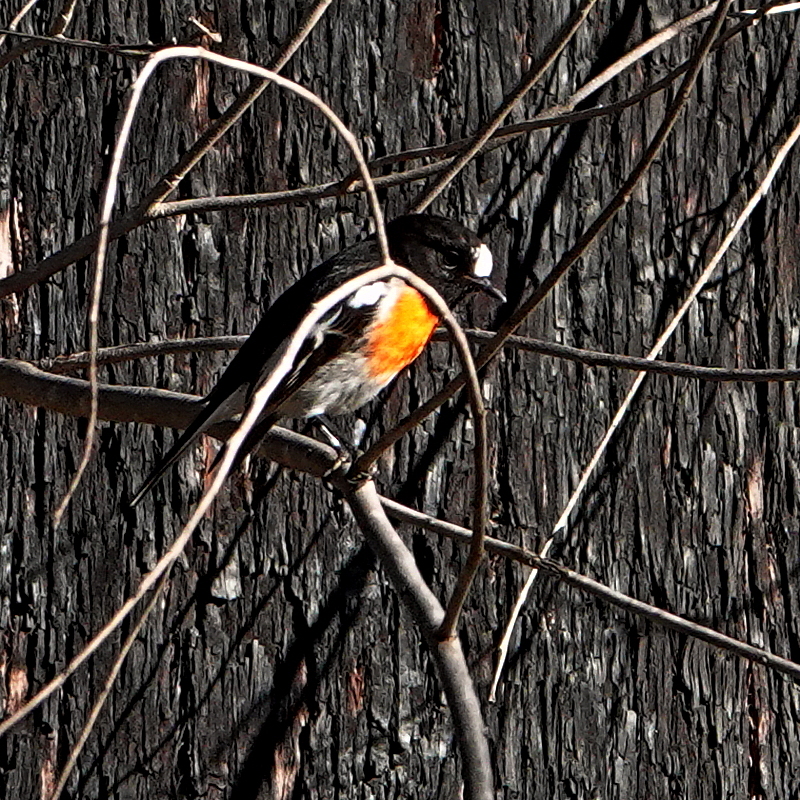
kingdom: Animalia
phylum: Chordata
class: Aves
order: Passeriformes
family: Petroicidae
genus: Petroica
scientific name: Petroica boodang
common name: Scarlet robin
